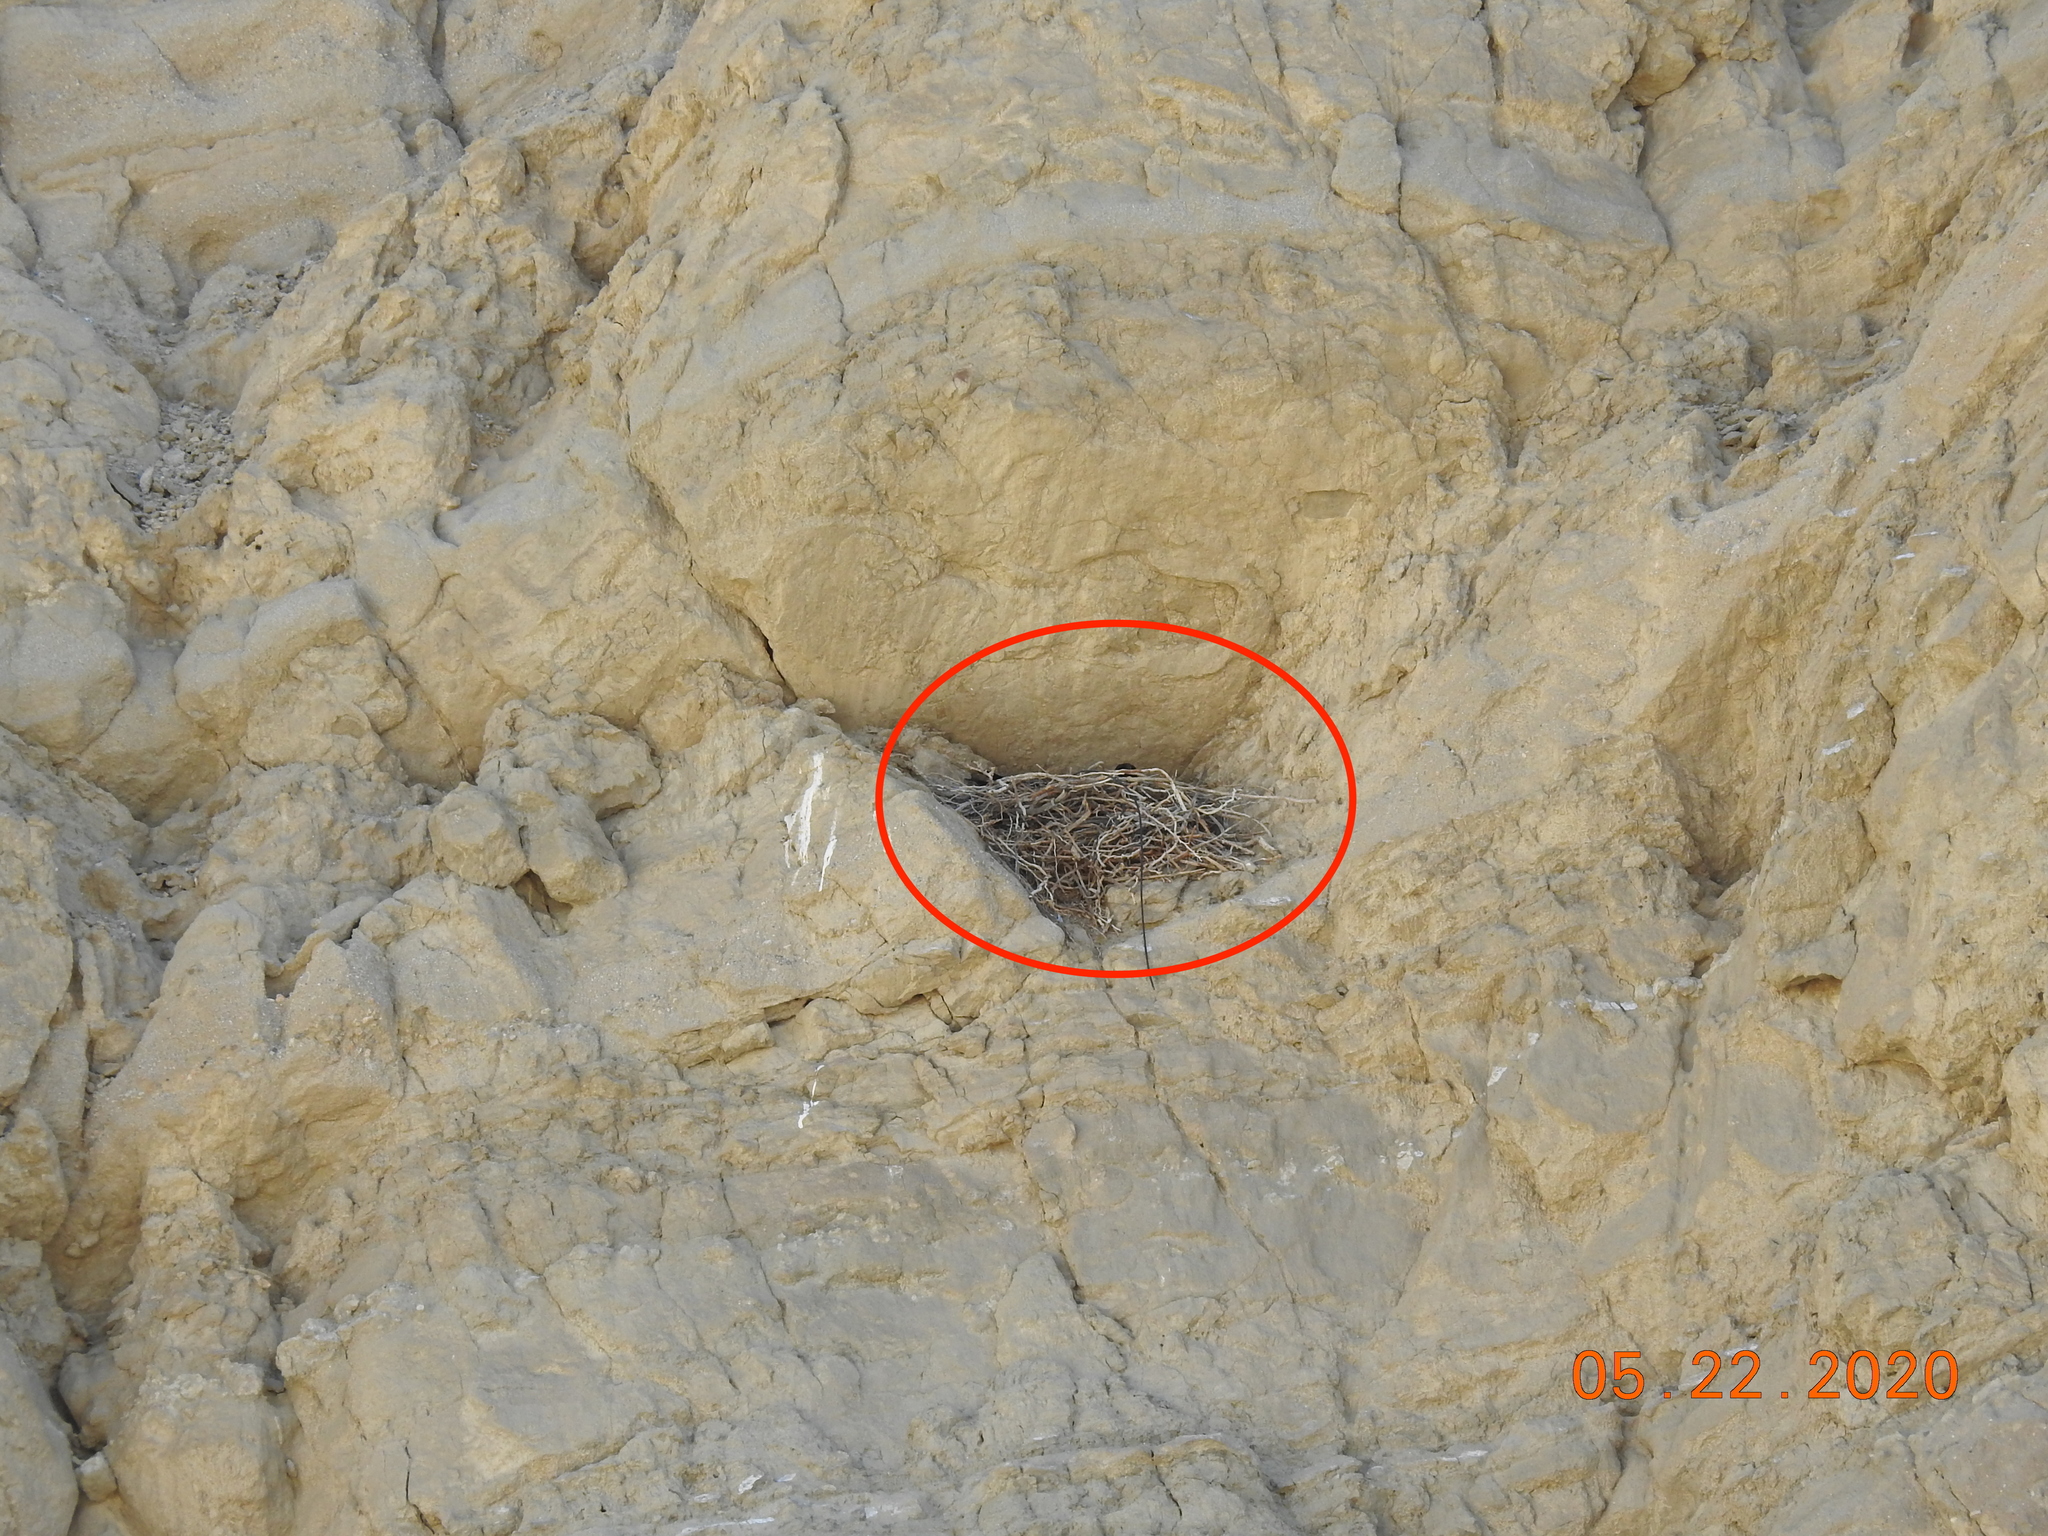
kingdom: Animalia
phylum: Chordata
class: Aves
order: Passeriformes
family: Corvidae
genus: Corvus
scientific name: Corvus corax
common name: Common raven
